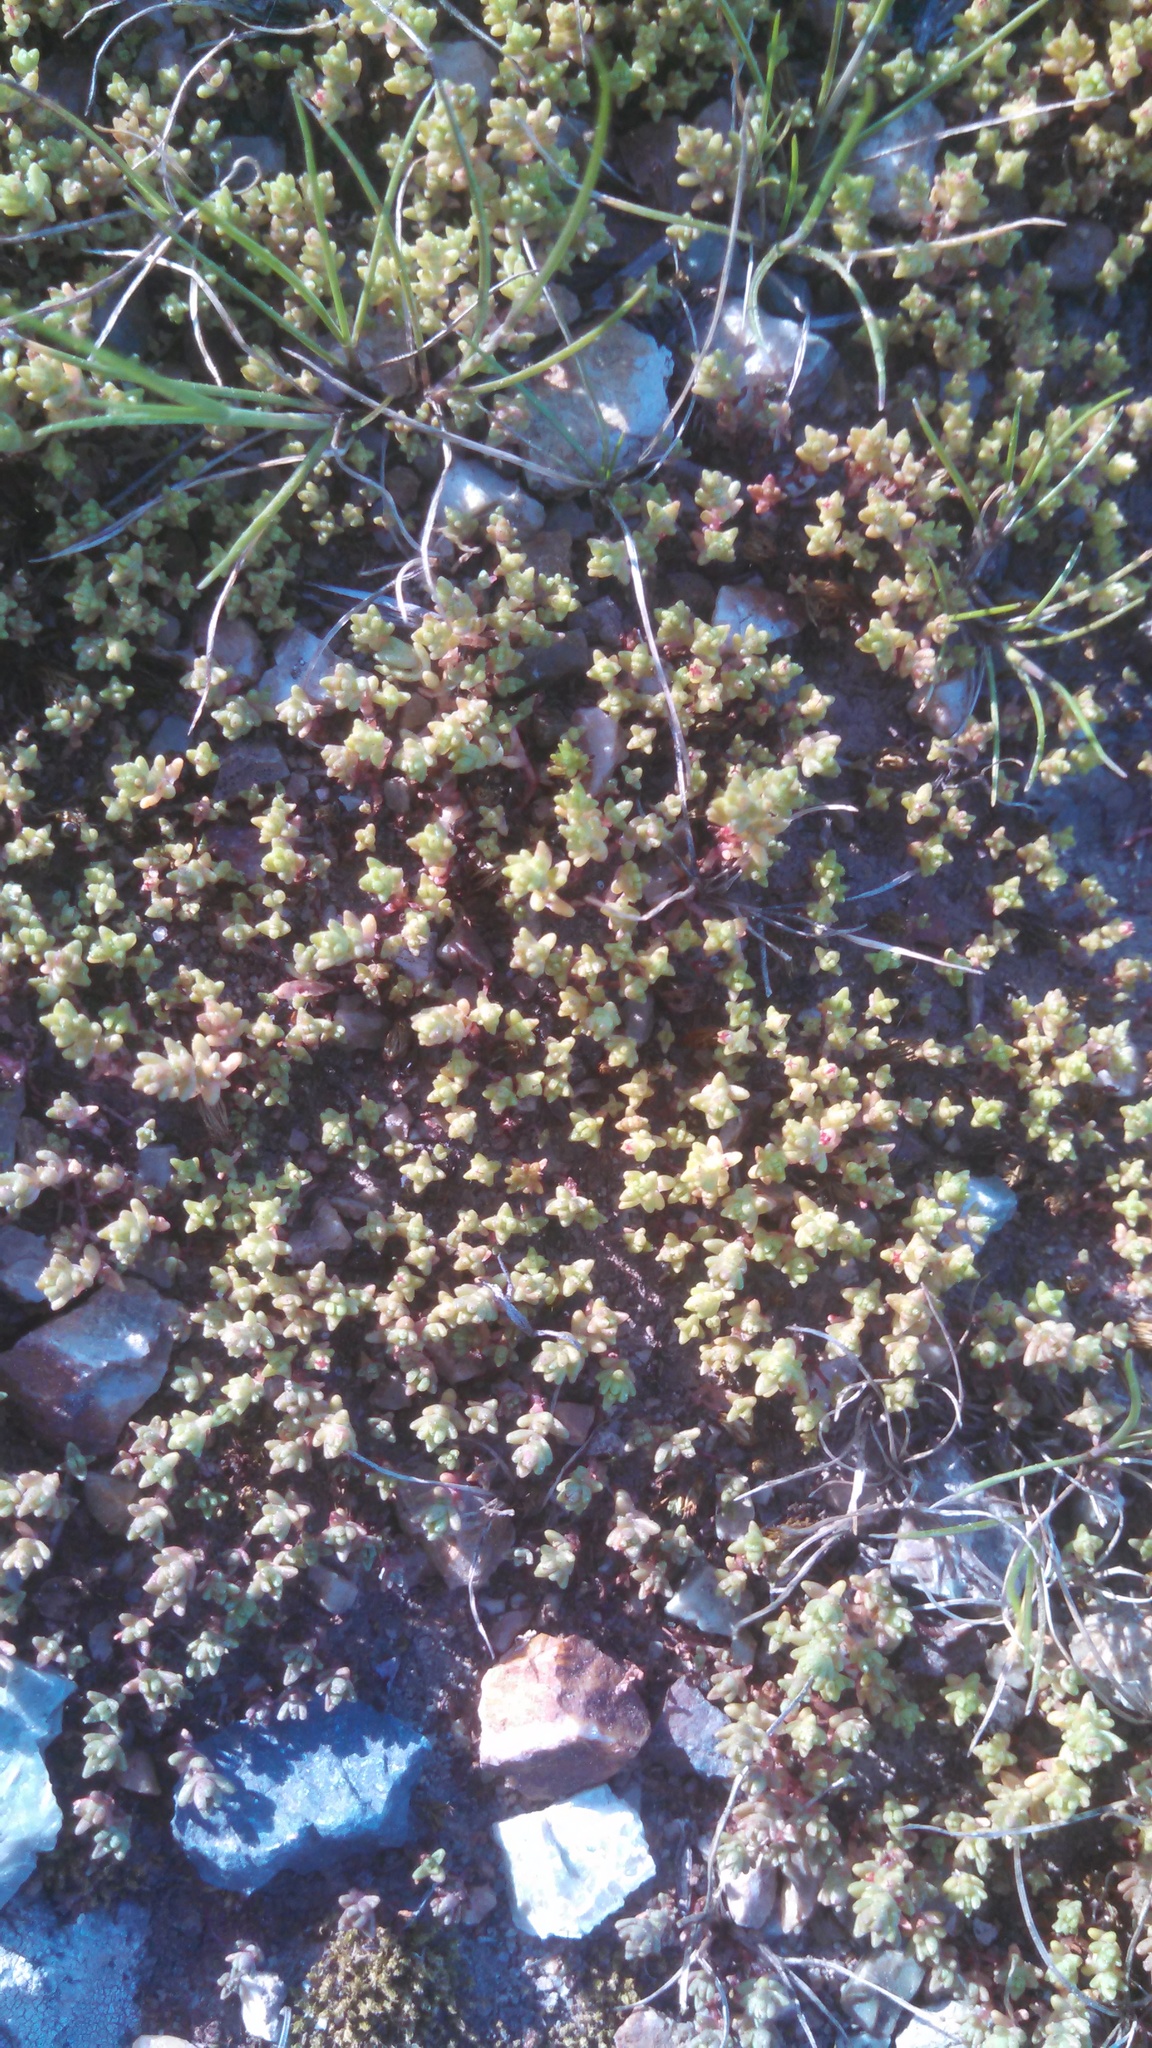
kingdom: Plantae
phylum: Tracheophyta
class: Magnoliopsida
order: Saxifragales
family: Crassulaceae
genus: Crassula
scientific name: Crassula connata
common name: Erect pygmyweed
